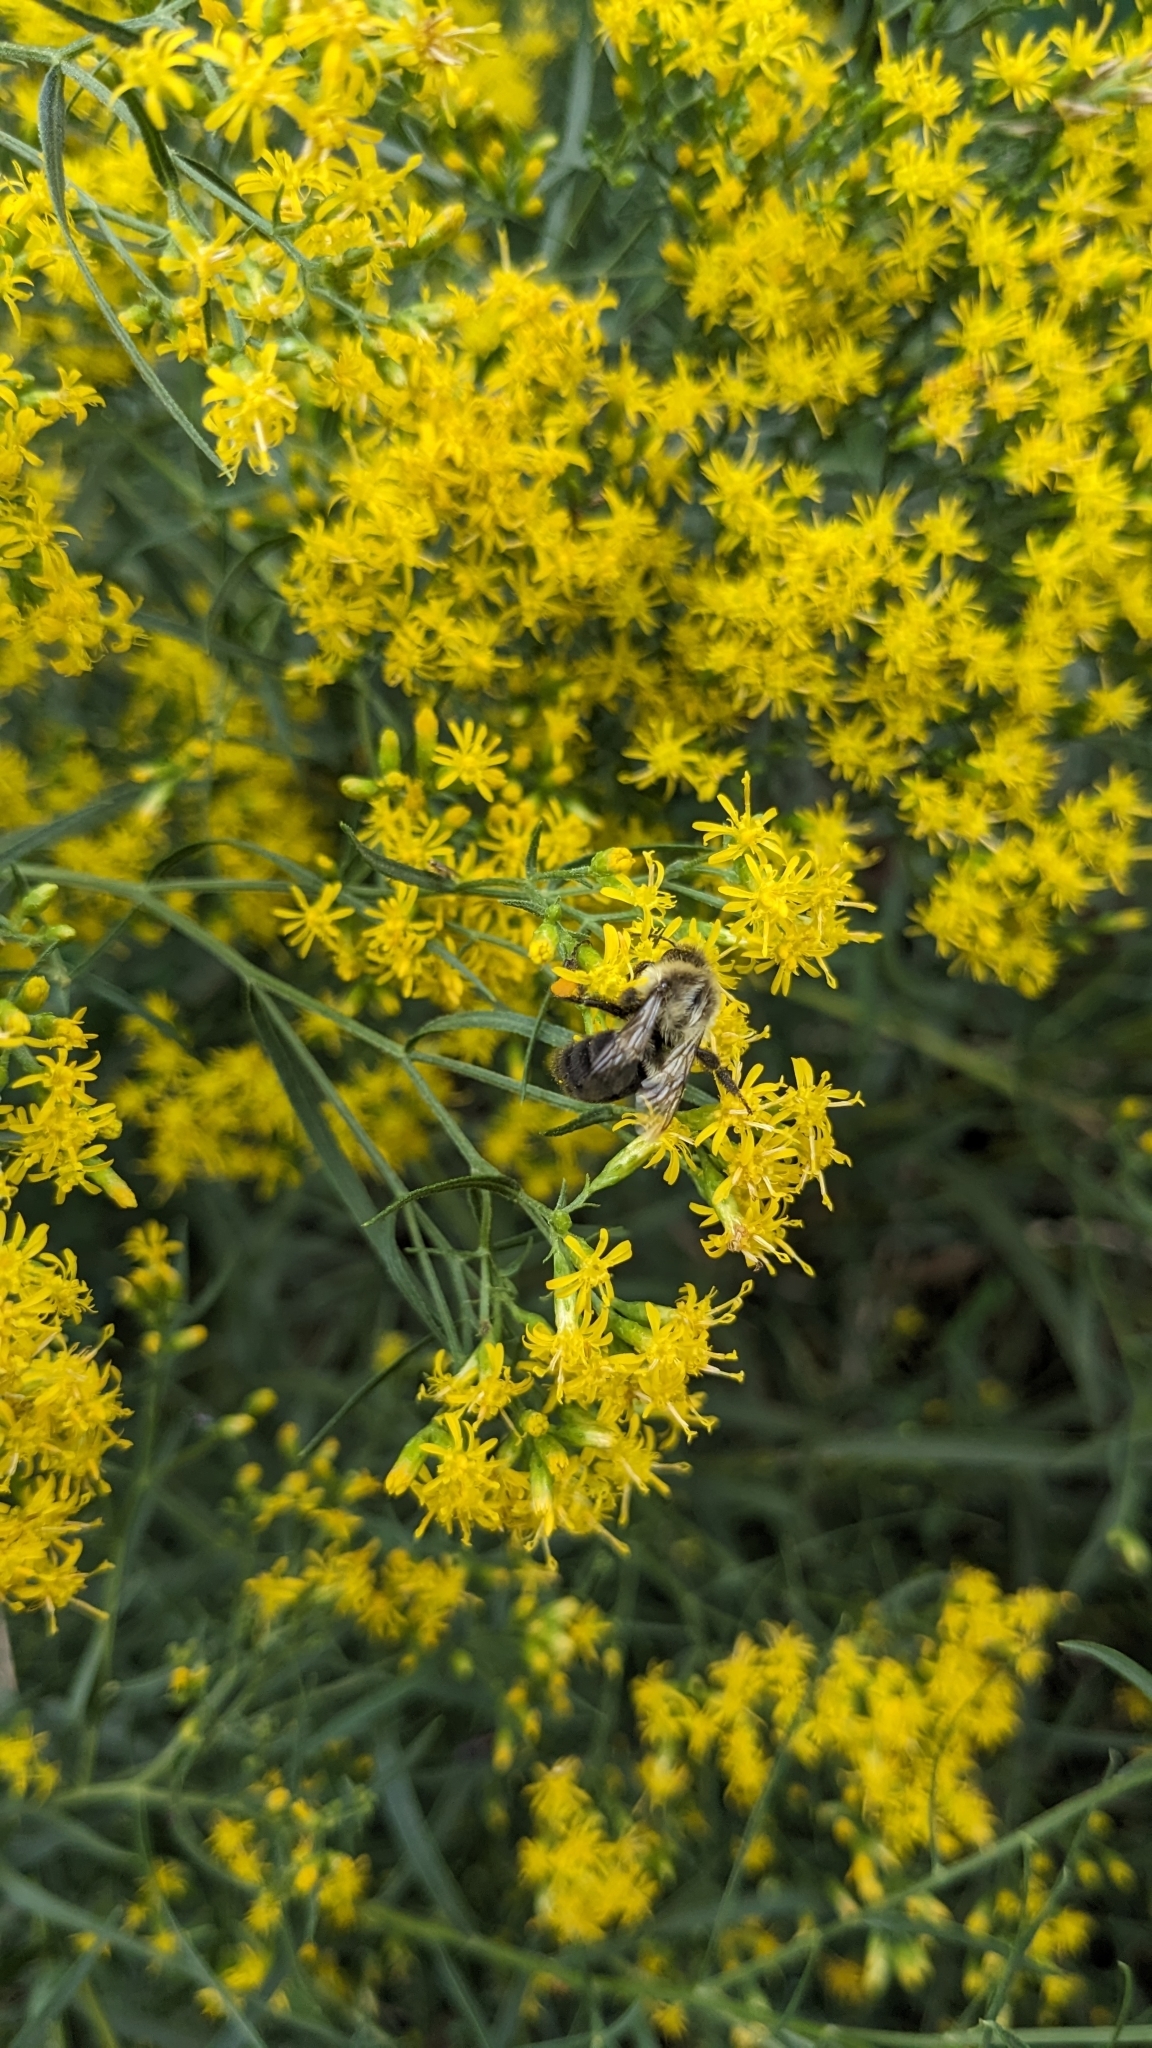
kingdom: Animalia
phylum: Arthropoda
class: Insecta
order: Hymenoptera
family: Apidae
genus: Bombus
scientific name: Bombus impatiens
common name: Common eastern bumble bee
